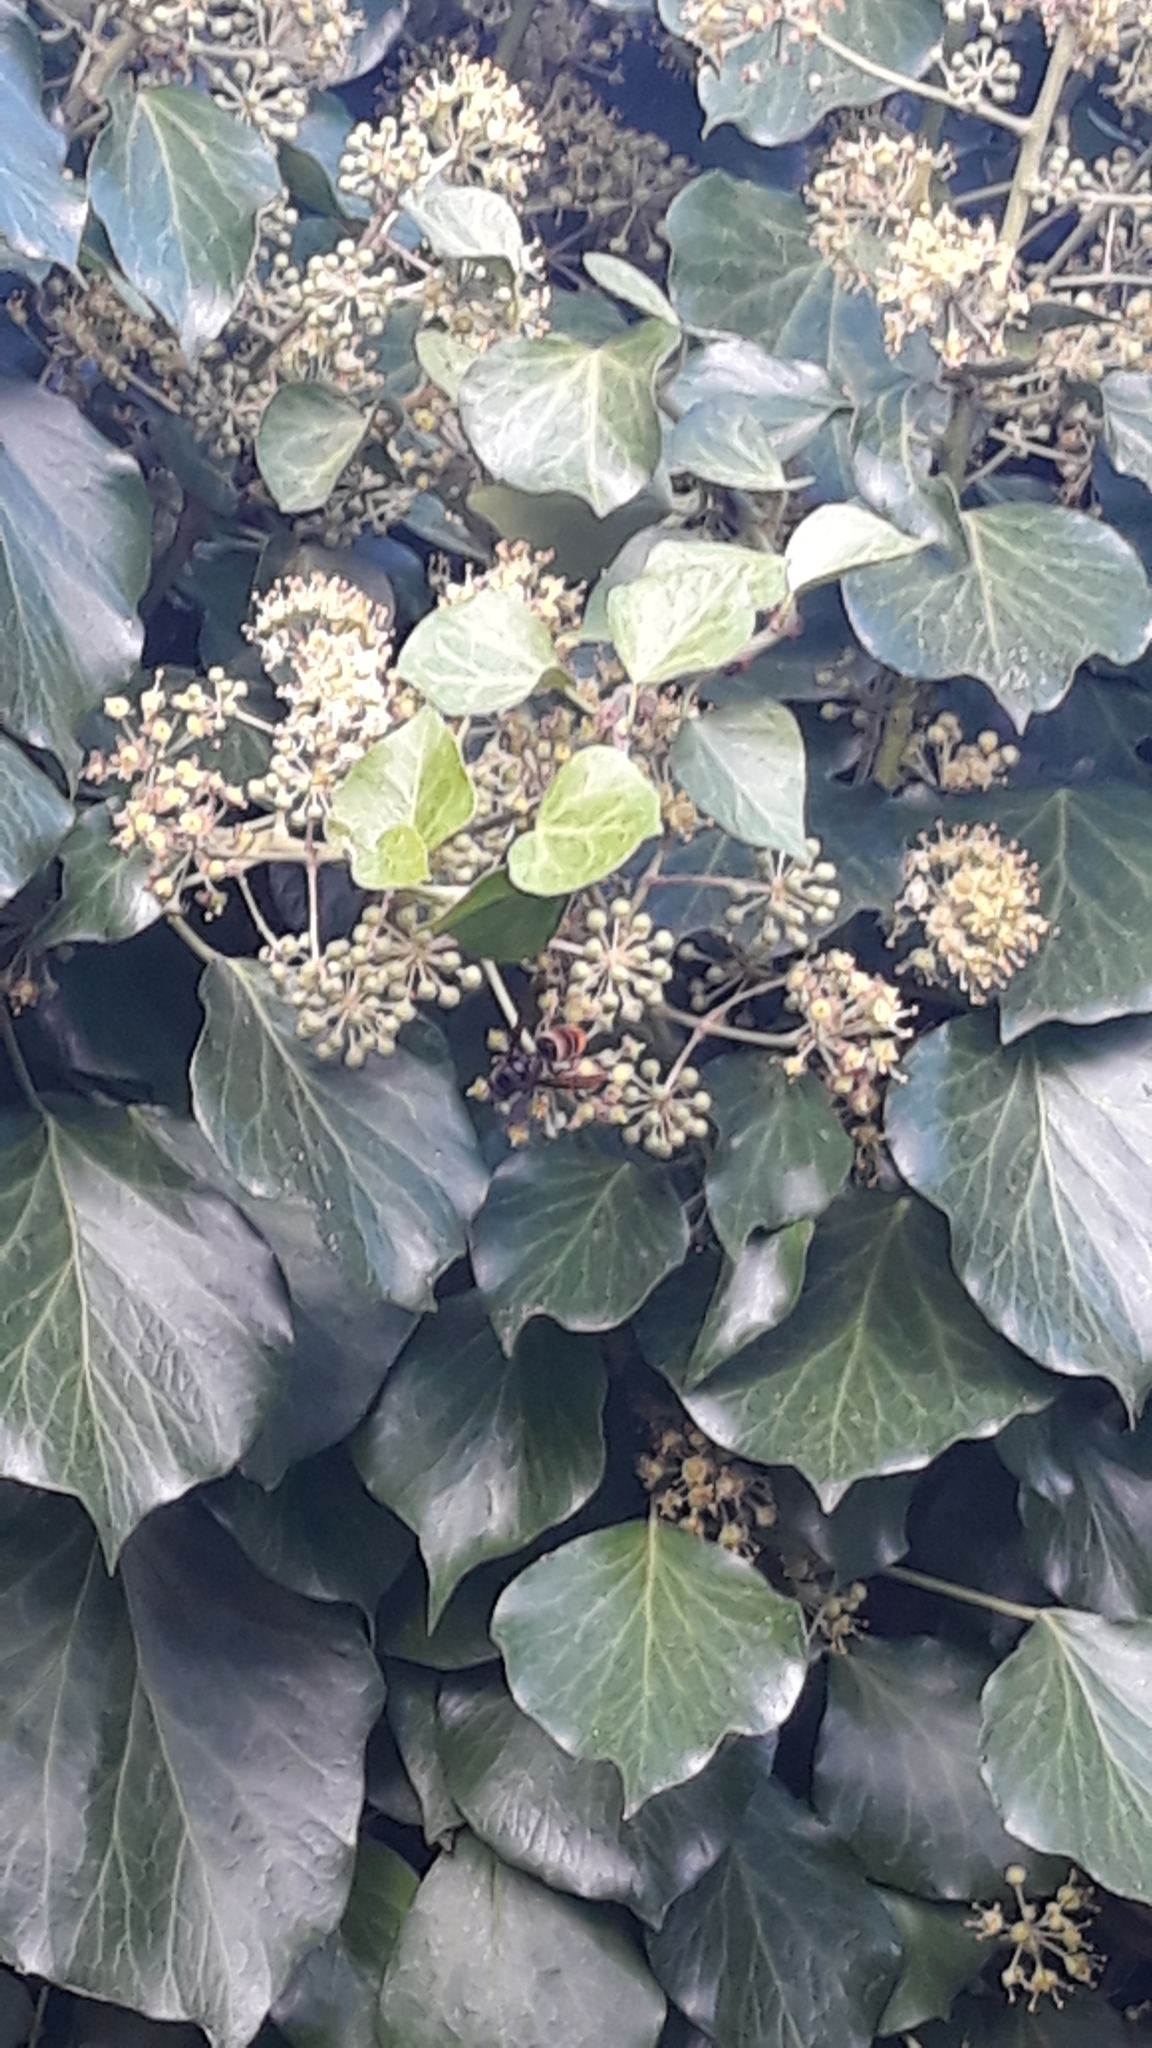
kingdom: Animalia
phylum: Arthropoda
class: Insecta
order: Hymenoptera
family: Vespidae
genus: Vespa
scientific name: Vespa velutina
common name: Asian hornet
